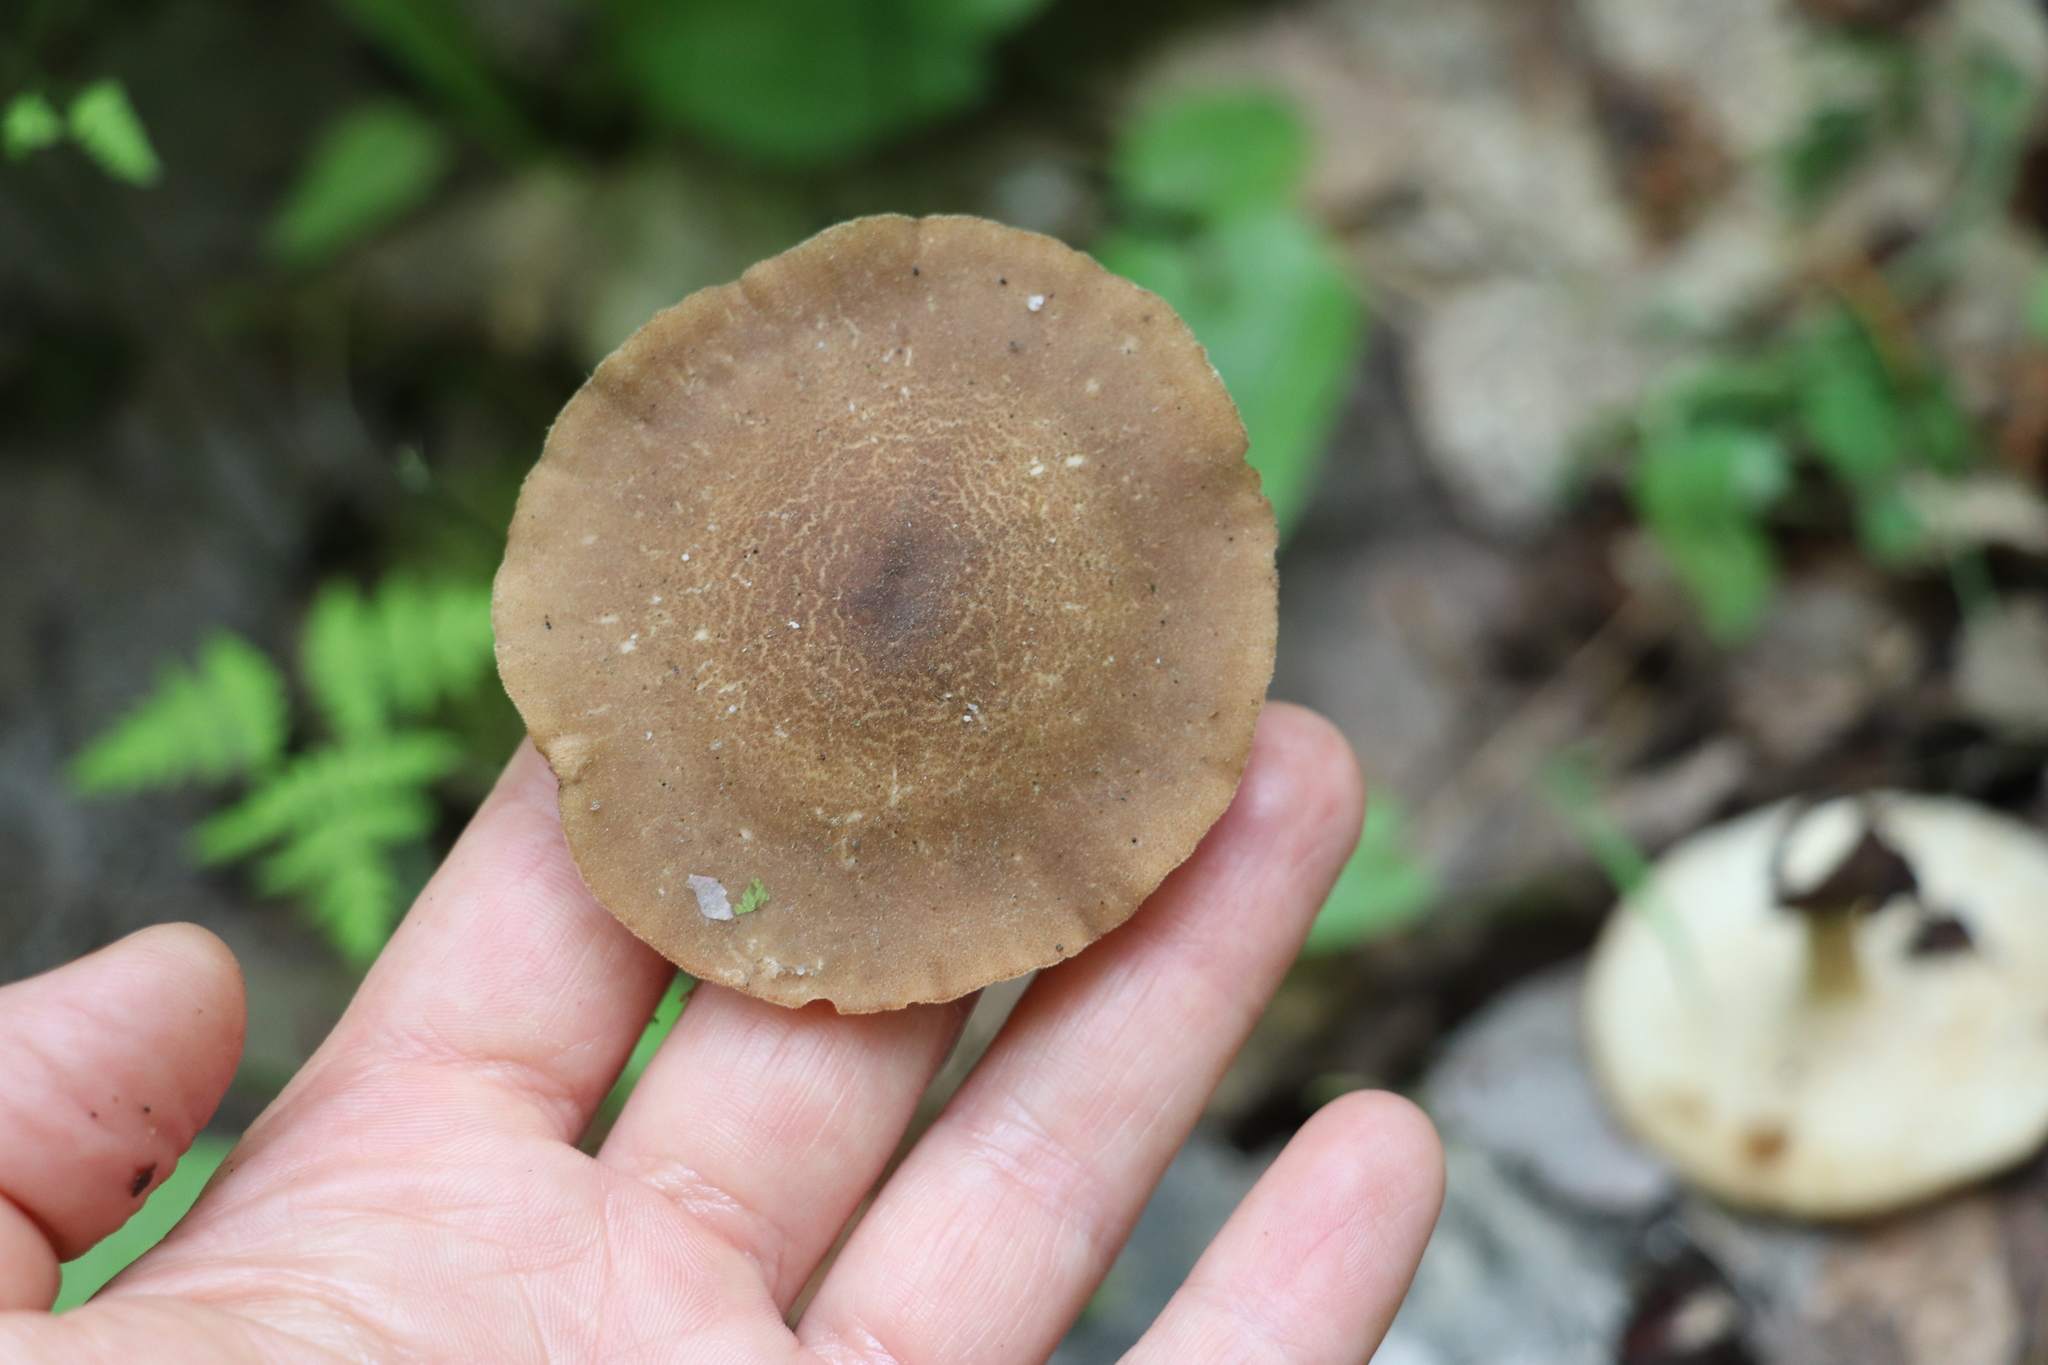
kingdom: Fungi
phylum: Basidiomycota
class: Agaricomycetes
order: Polyporales
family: Polyporaceae
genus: Lentinus
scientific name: Lentinus substrictus
